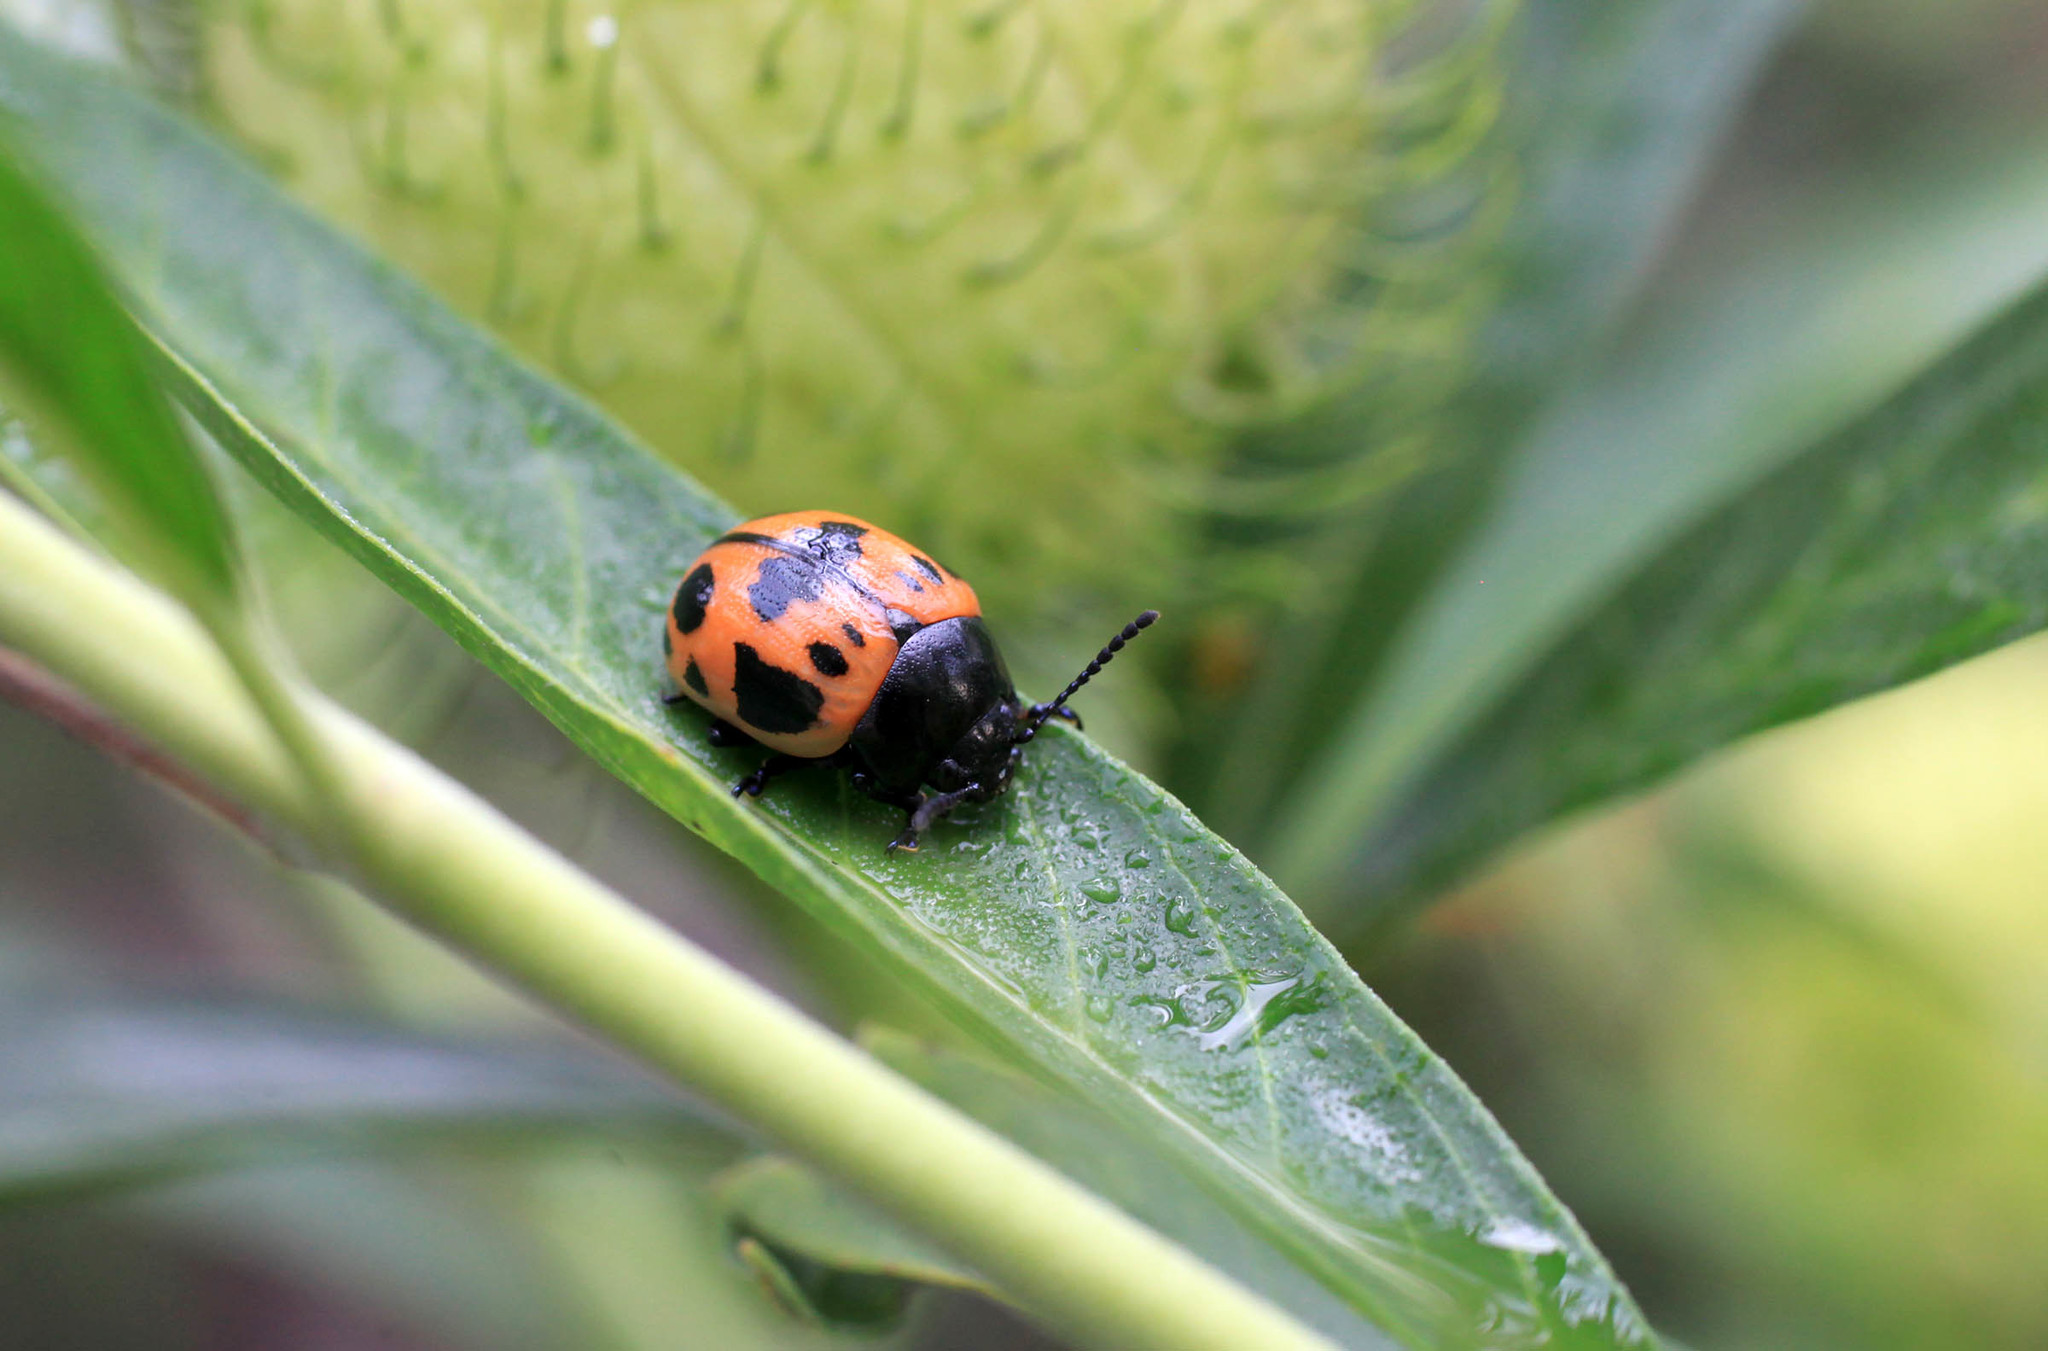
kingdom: Animalia
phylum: Arthropoda
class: Insecta
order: Coleoptera
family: Chrysomelidae
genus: Labidomera
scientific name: Labidomera clivicollis
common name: Swamp milkweed leaf beetle
